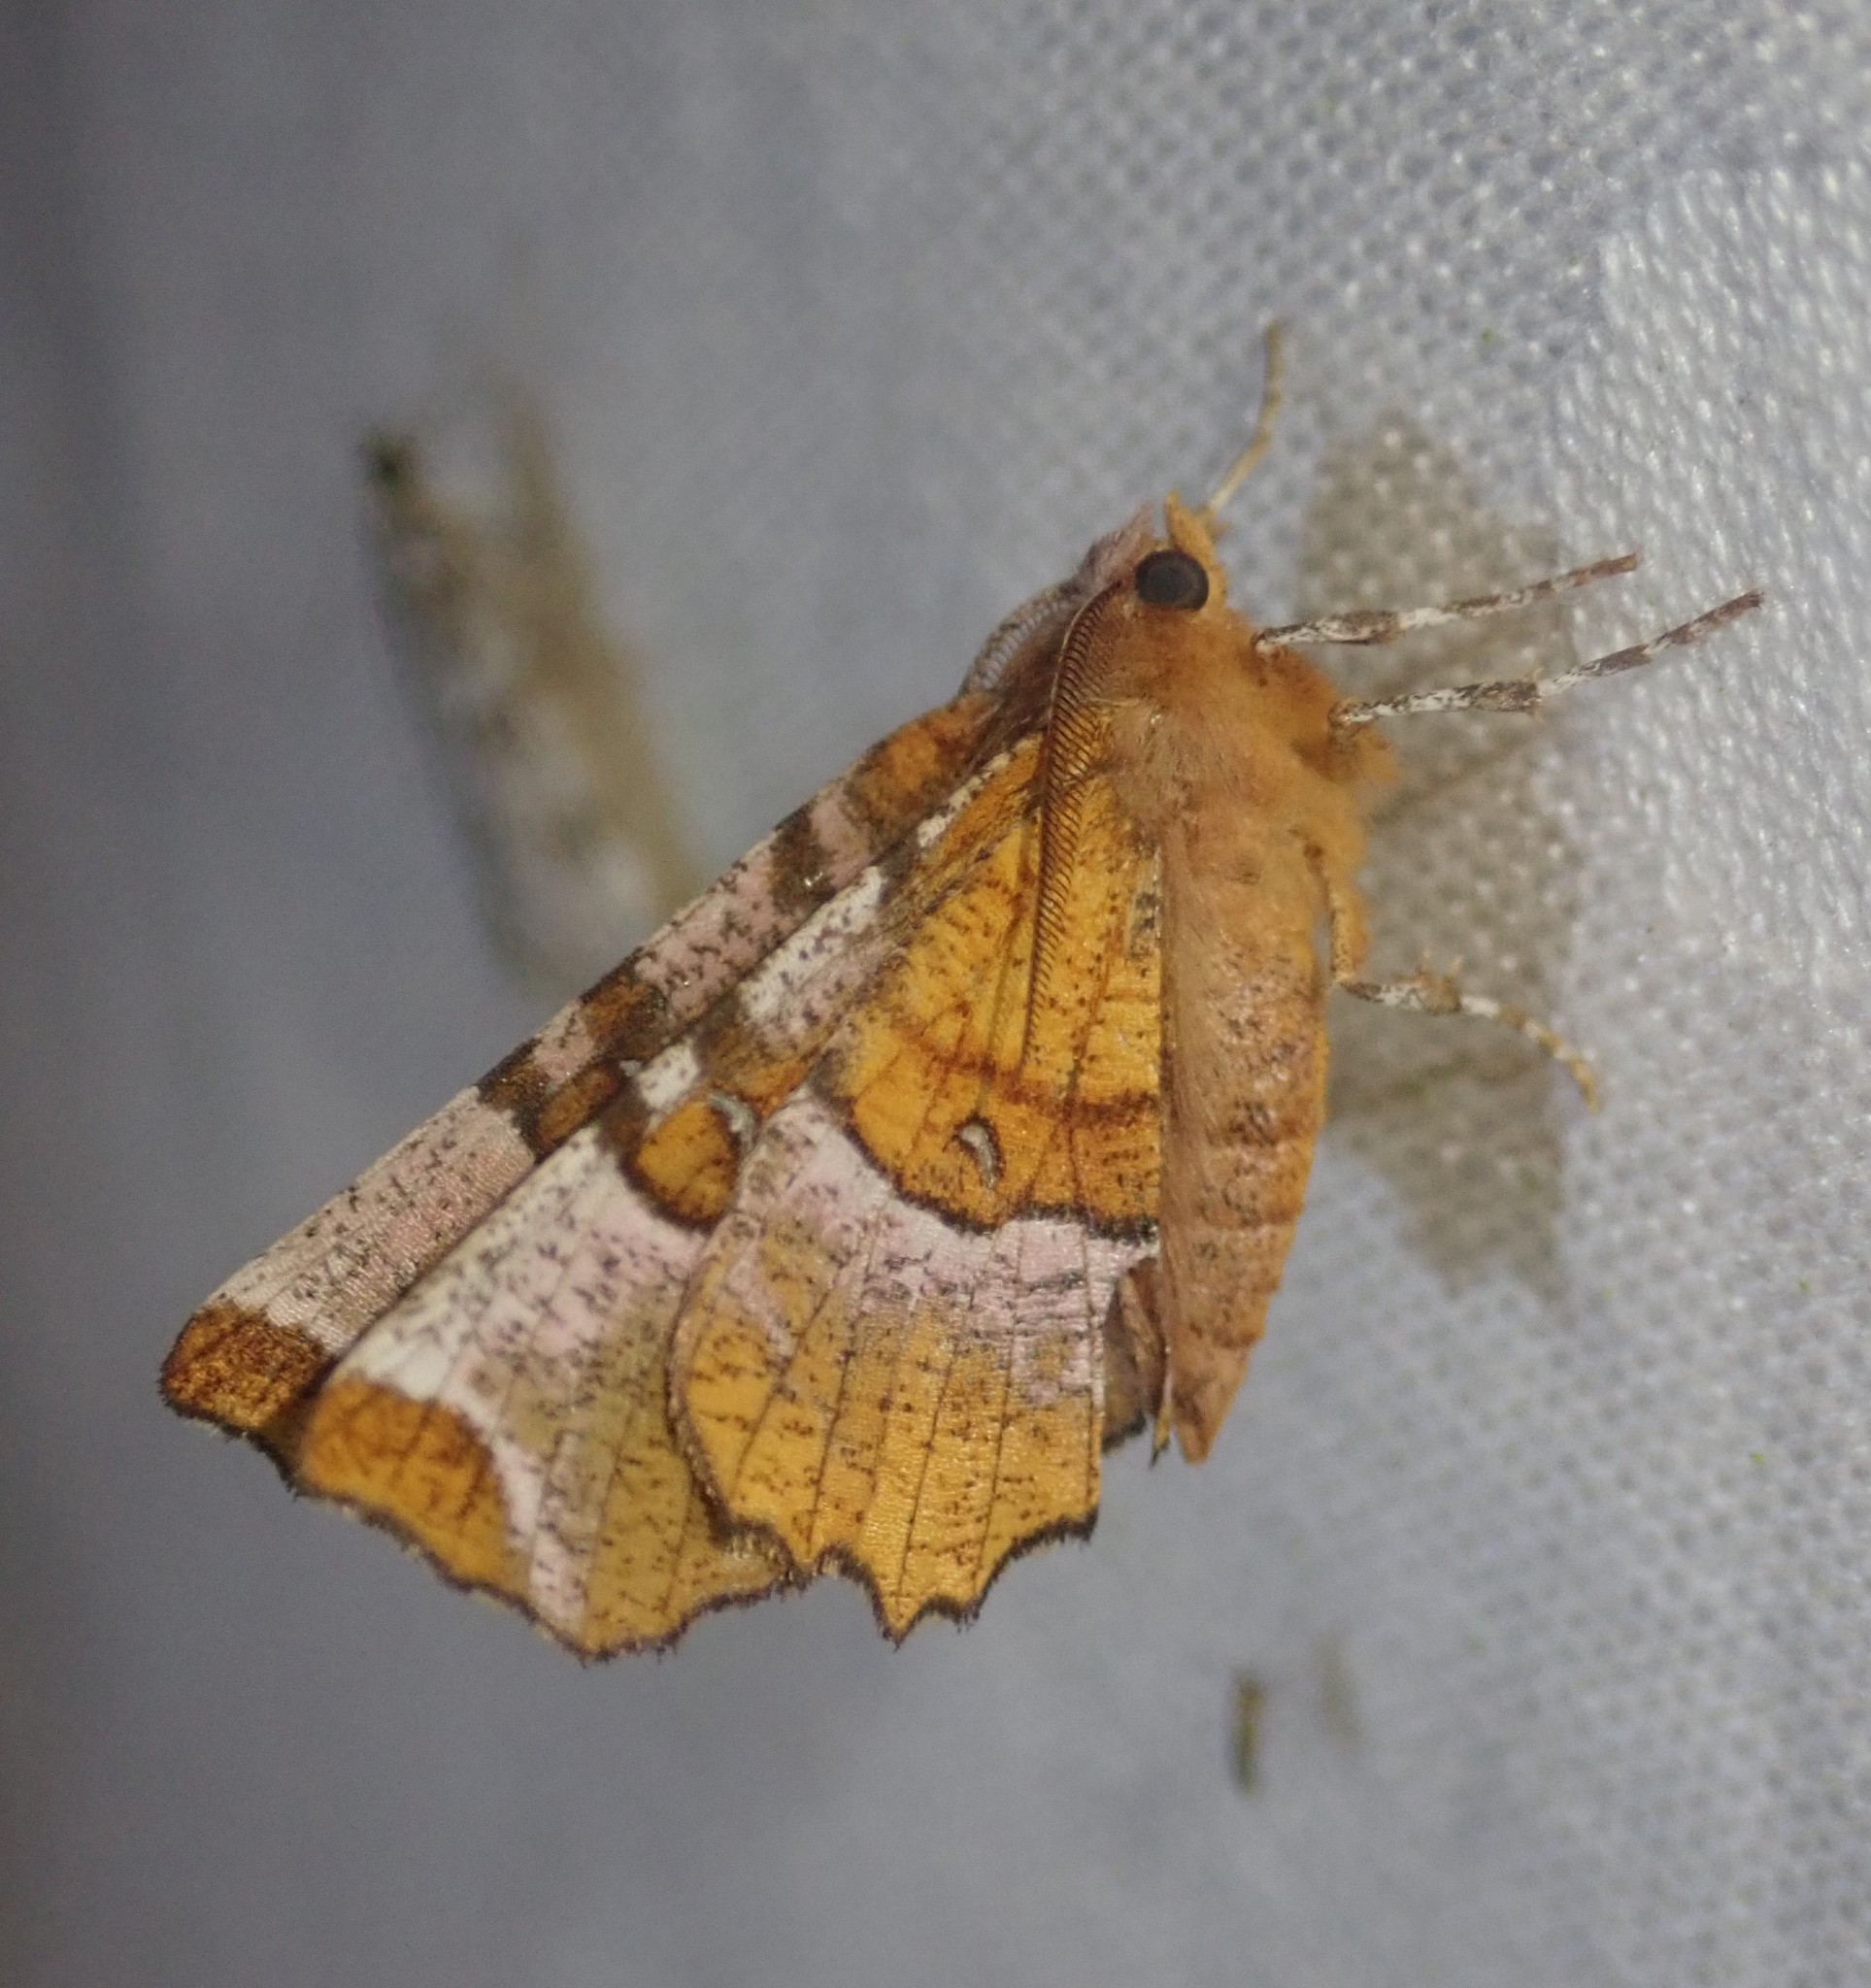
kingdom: Animalia
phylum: Arthropoda
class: Insecta
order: Lepidoptera
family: Geometridae
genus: Selenia
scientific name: Selenia tetralunaria
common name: Purple thorn
